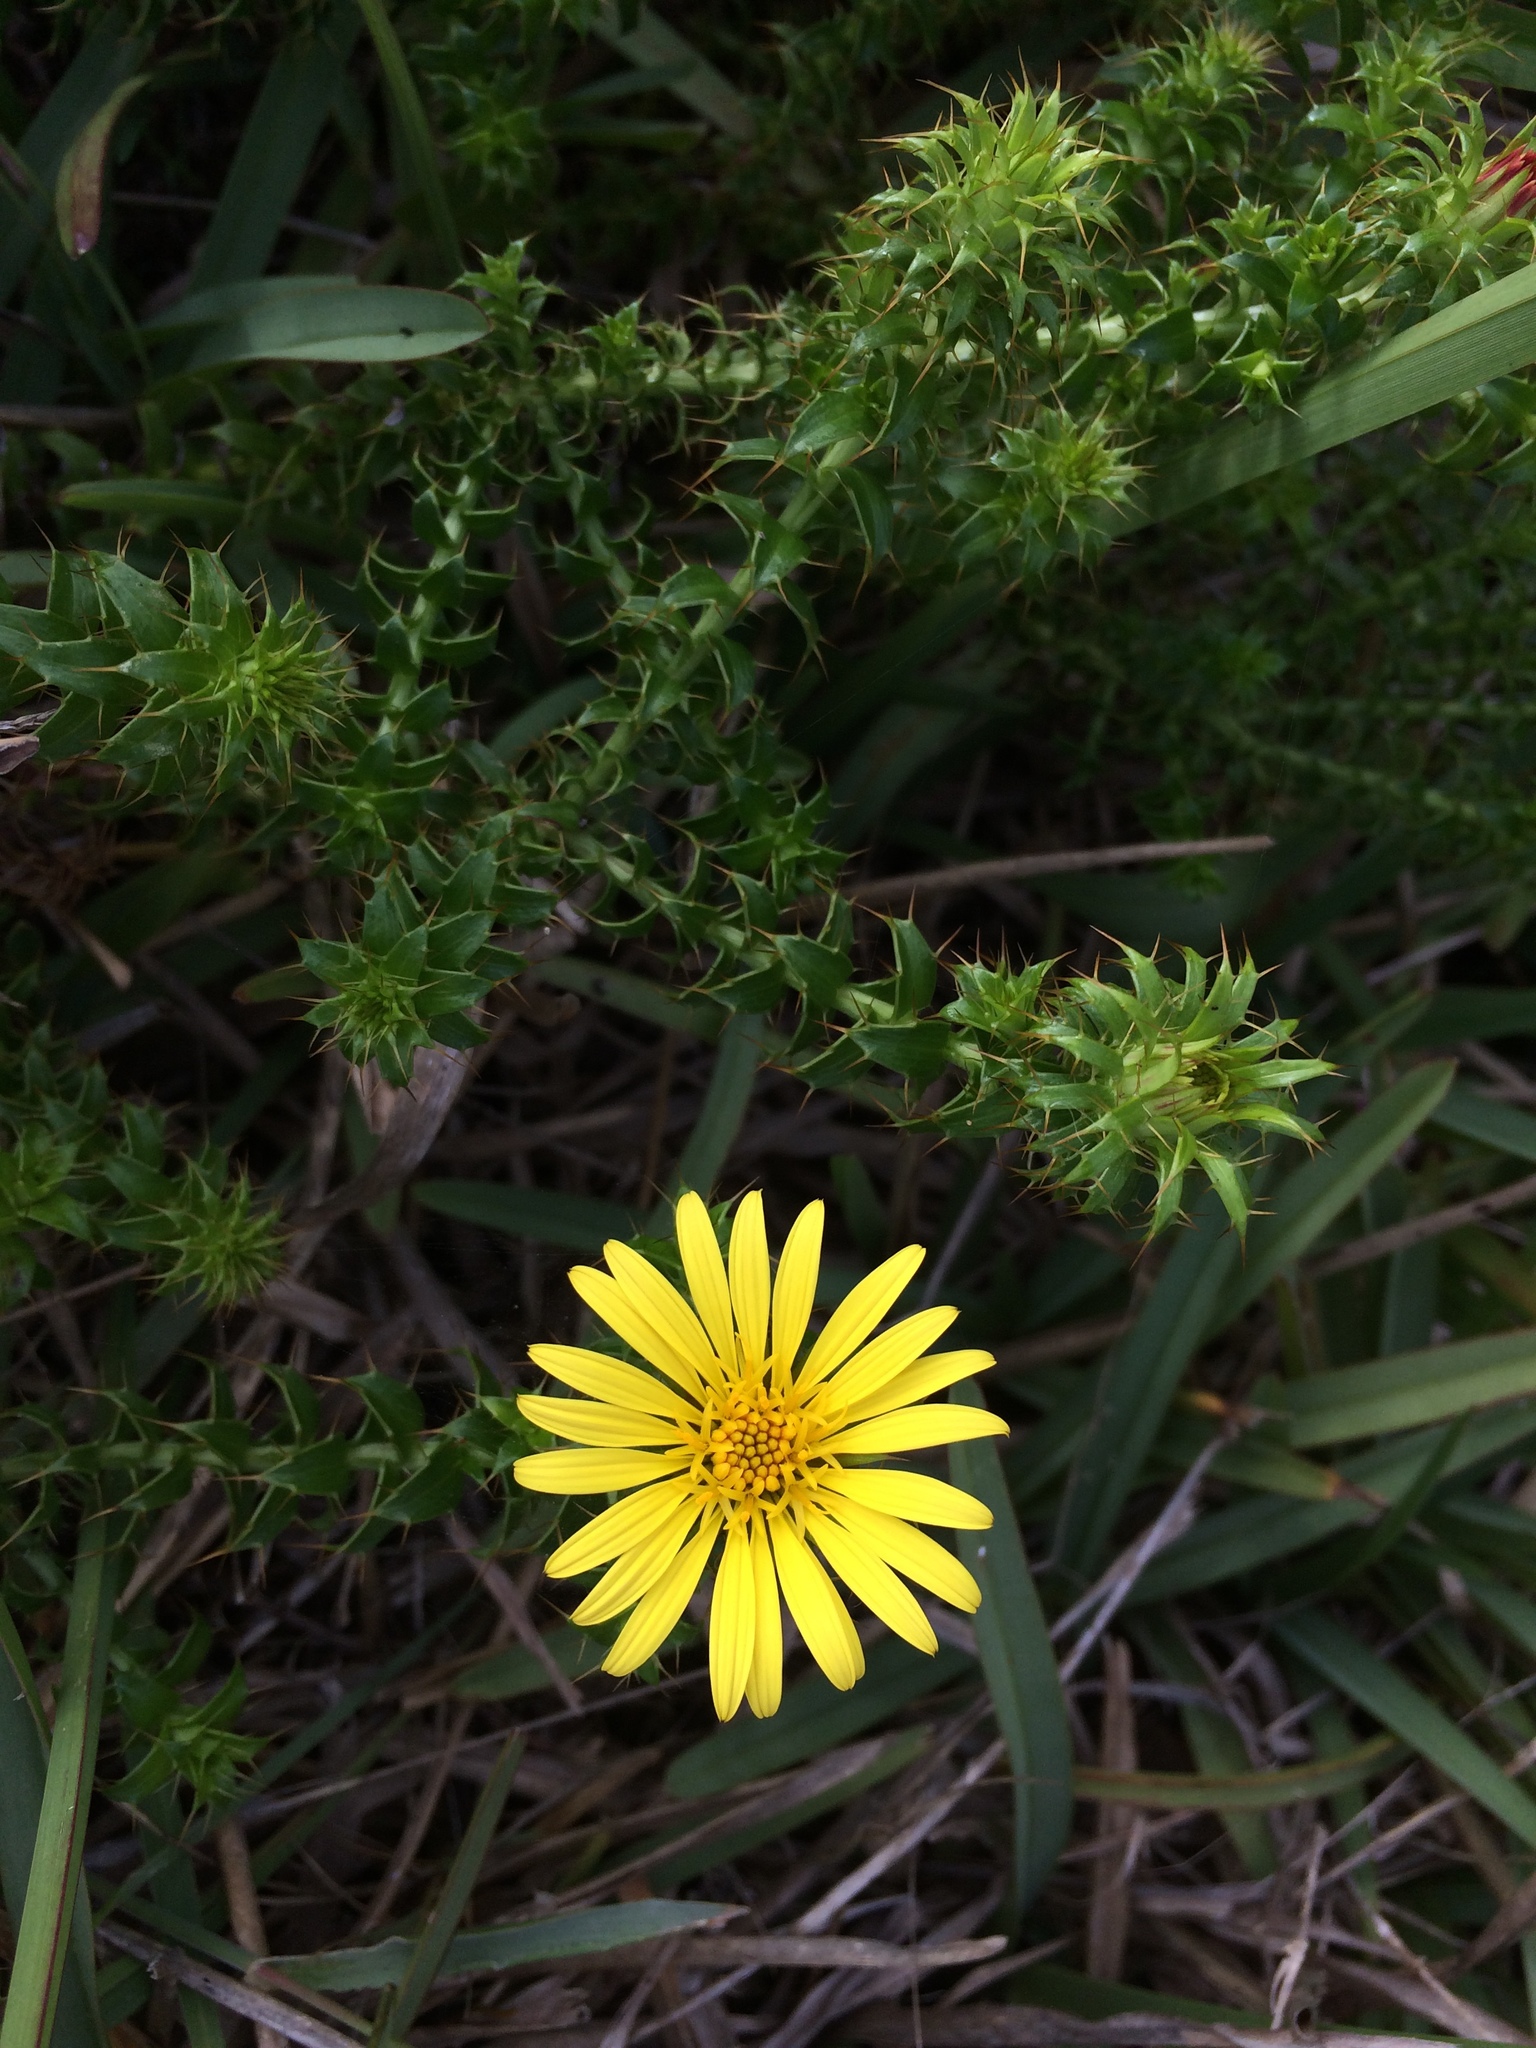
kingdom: Plantae
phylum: Tracheophyta
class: Magnoliopsida
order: Asterales
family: Asteraceae
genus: Cullumia
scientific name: Cullumia setosa
